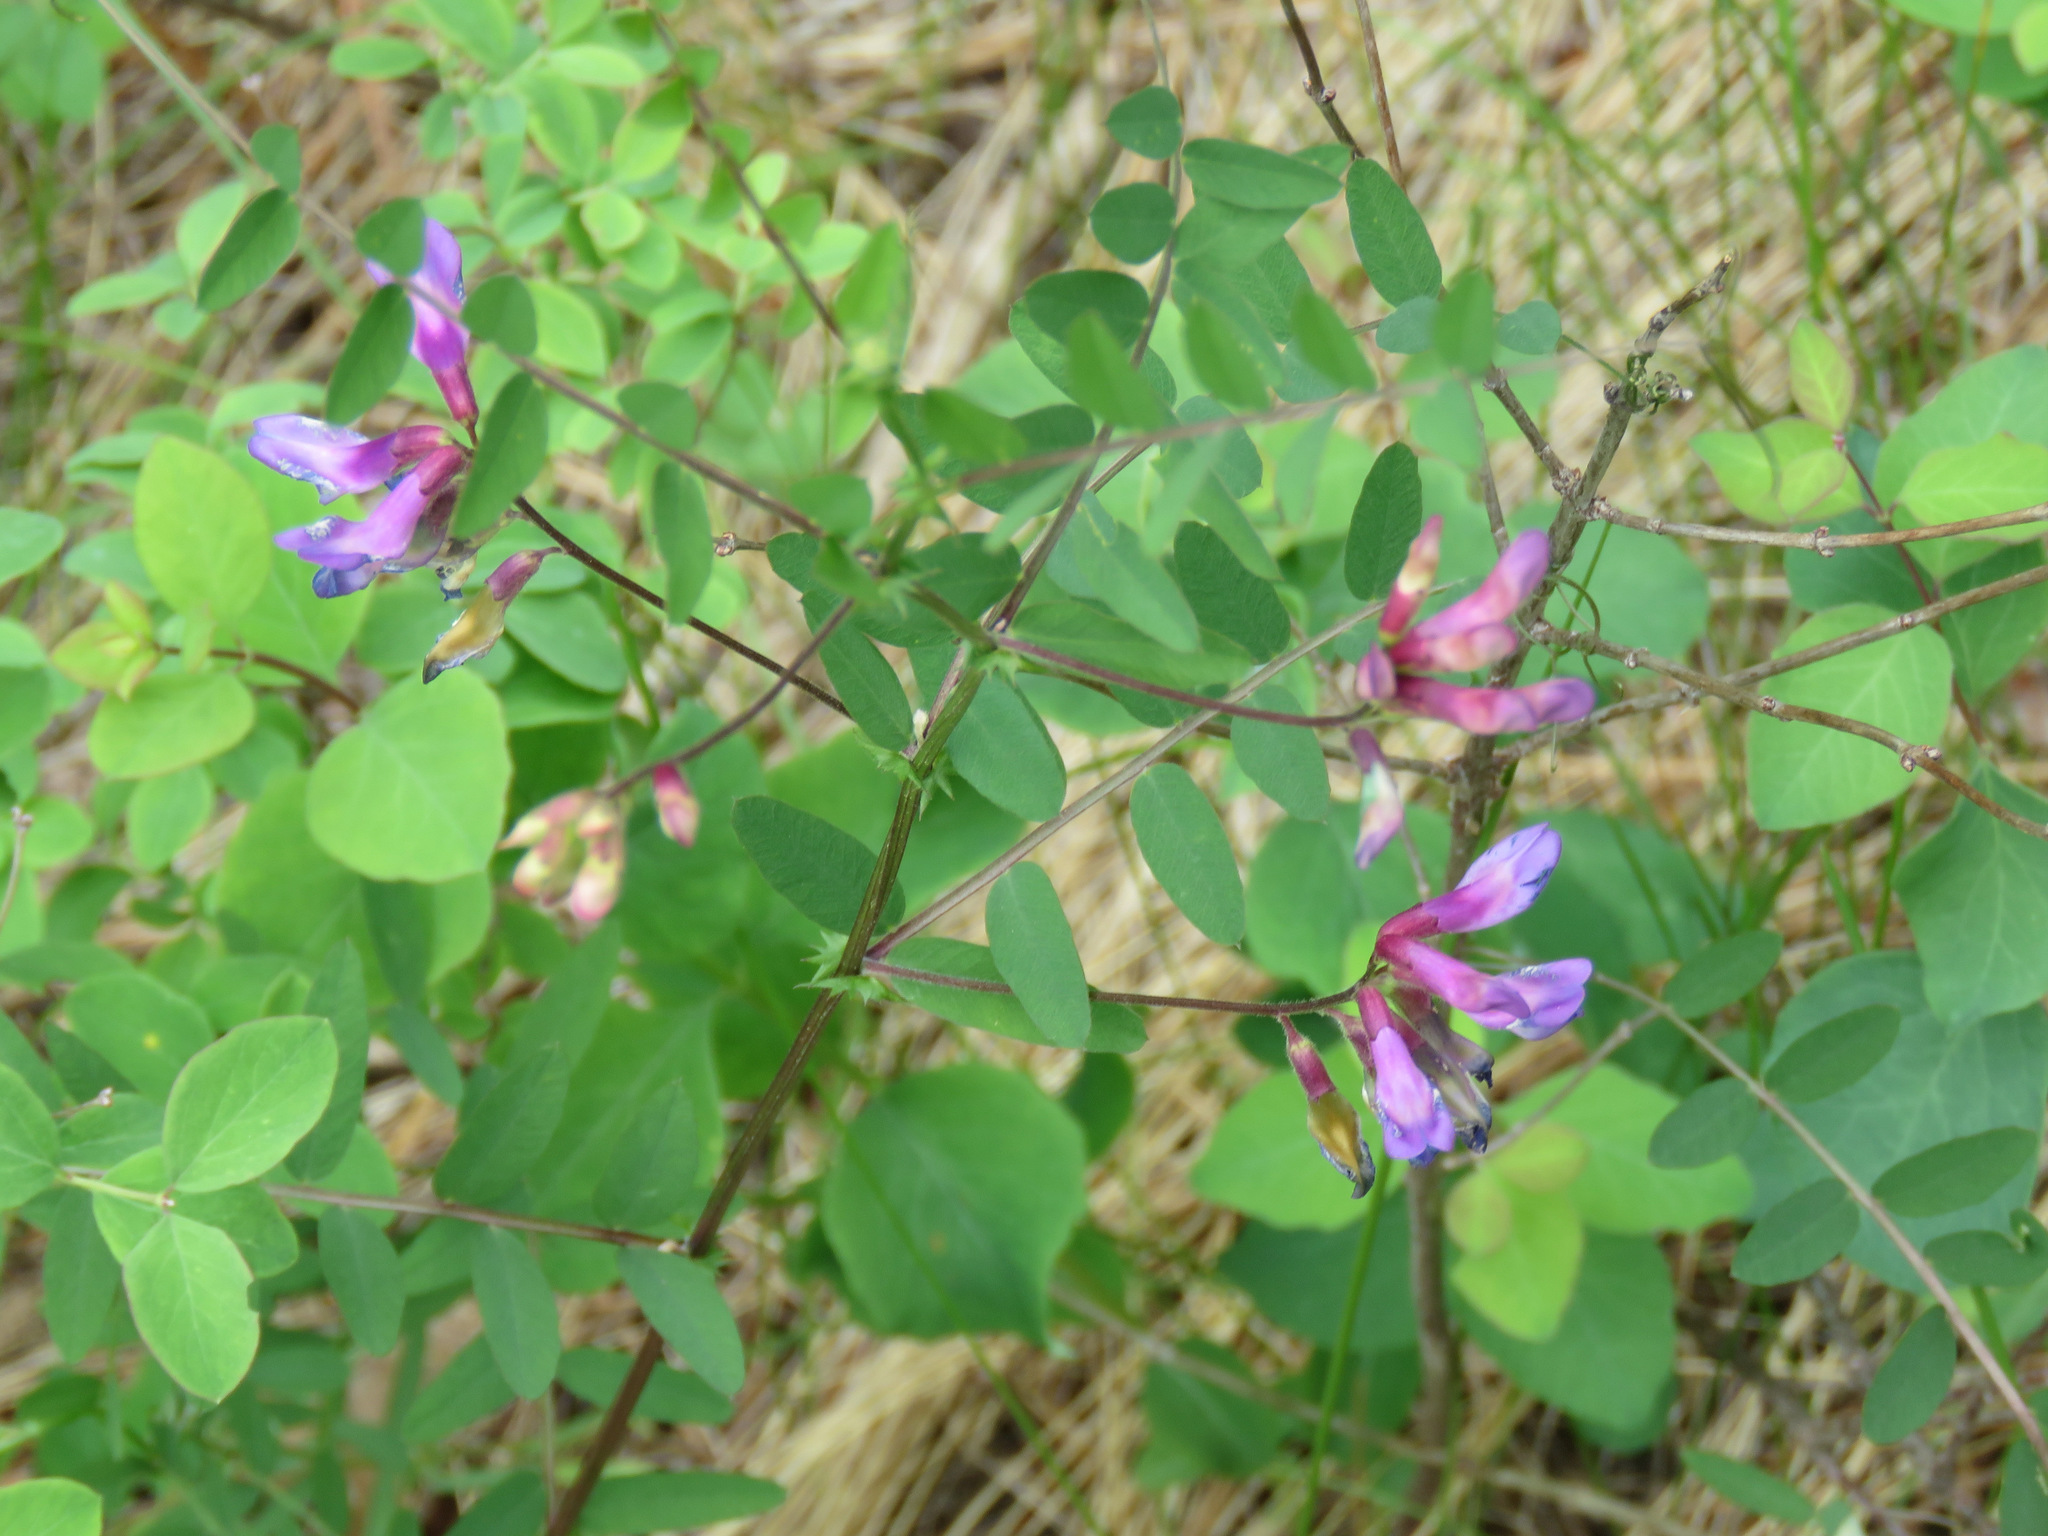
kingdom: Plantae
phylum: Tracheophyta
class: Magnoliopsida
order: Fabales
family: Fabaceae
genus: Vicia
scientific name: Vicia americana
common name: American vetch
